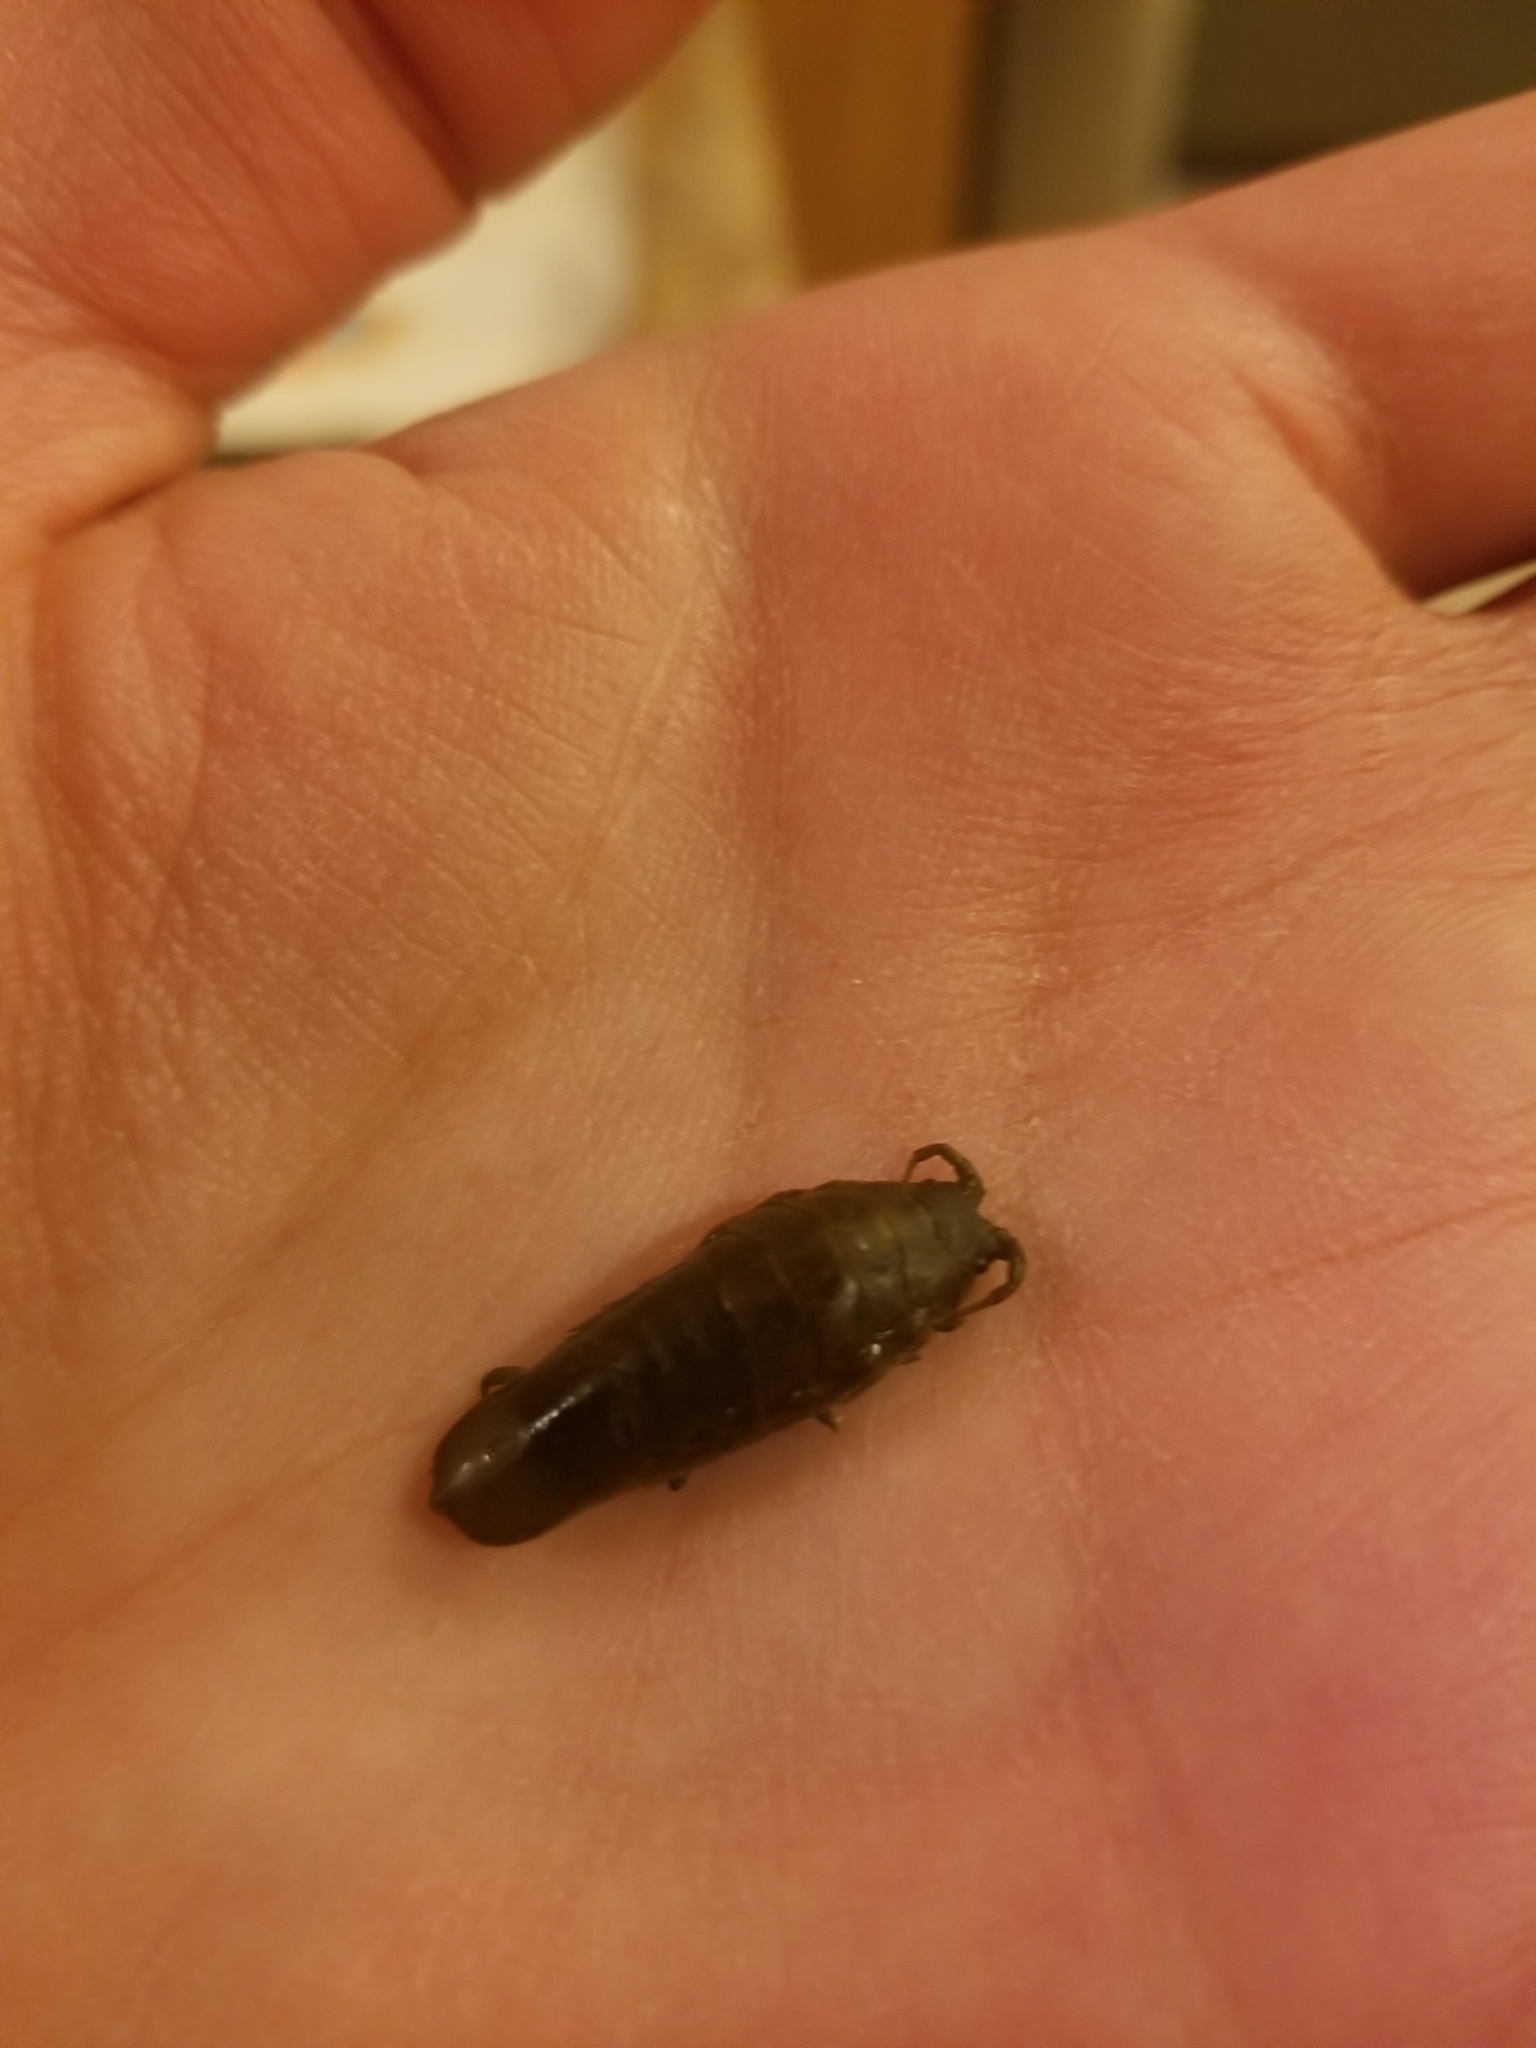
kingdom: Animalia
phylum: Arthropoda
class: Malacostraca
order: Isopoda
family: Idoteidae
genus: Pentidotea
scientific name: Pentidotea wosnesenskii
